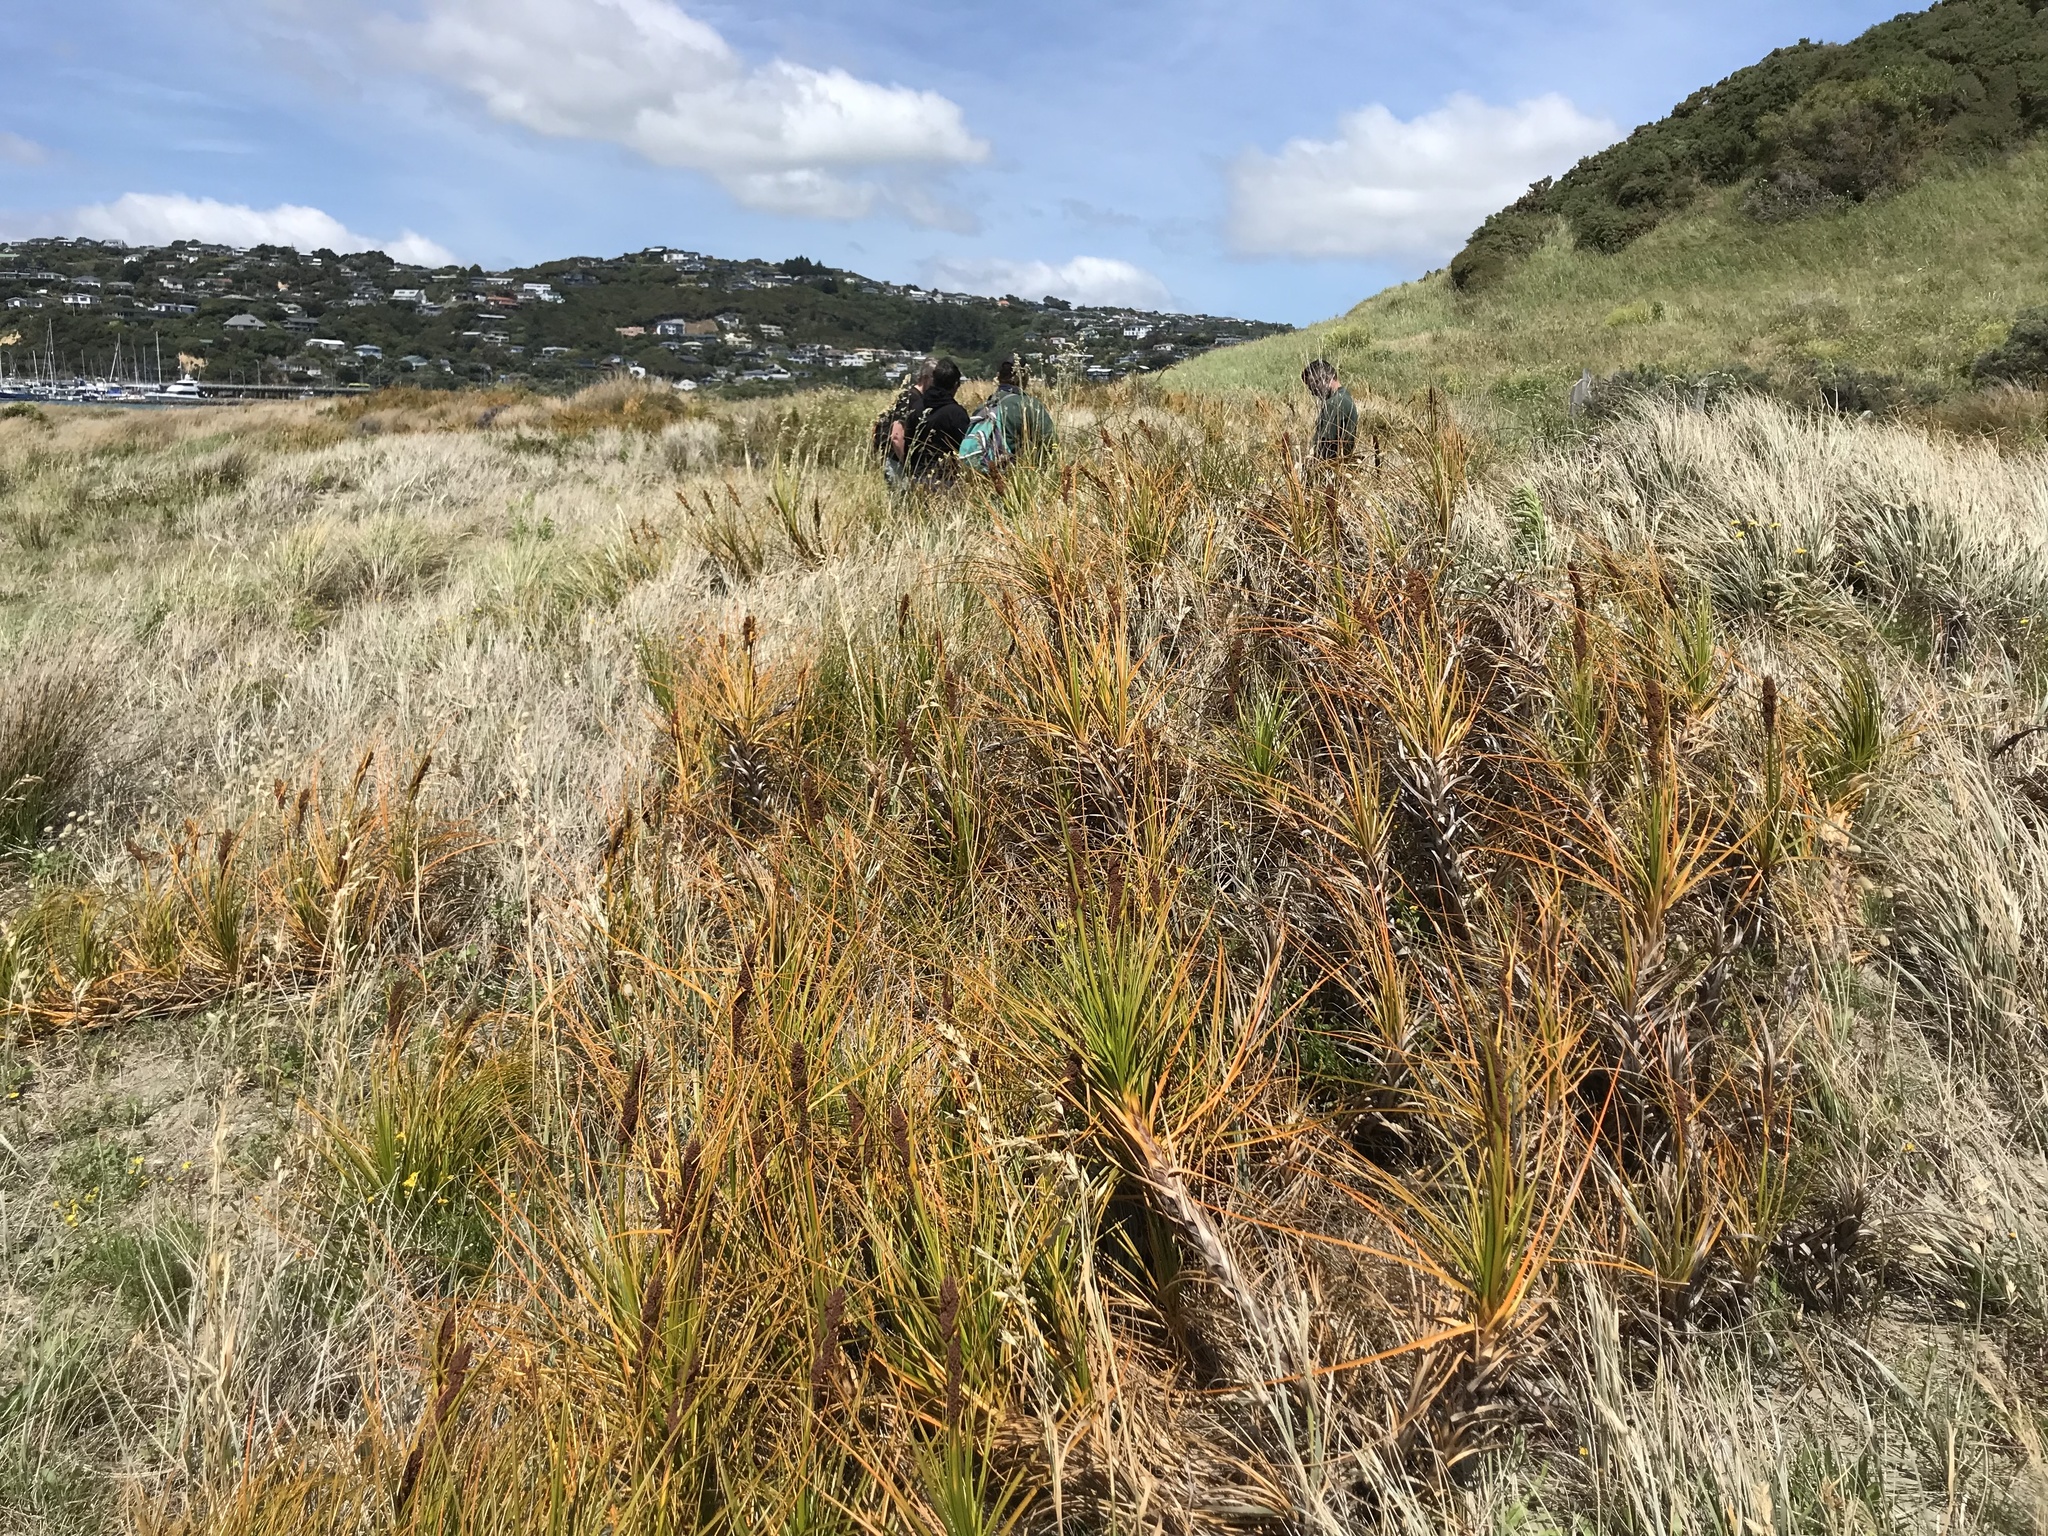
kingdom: Plantae
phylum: Tracheophyta
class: Liliopsida
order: Poales
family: Cyperaceae
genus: Ficinia
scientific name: Ficinia spiralis
